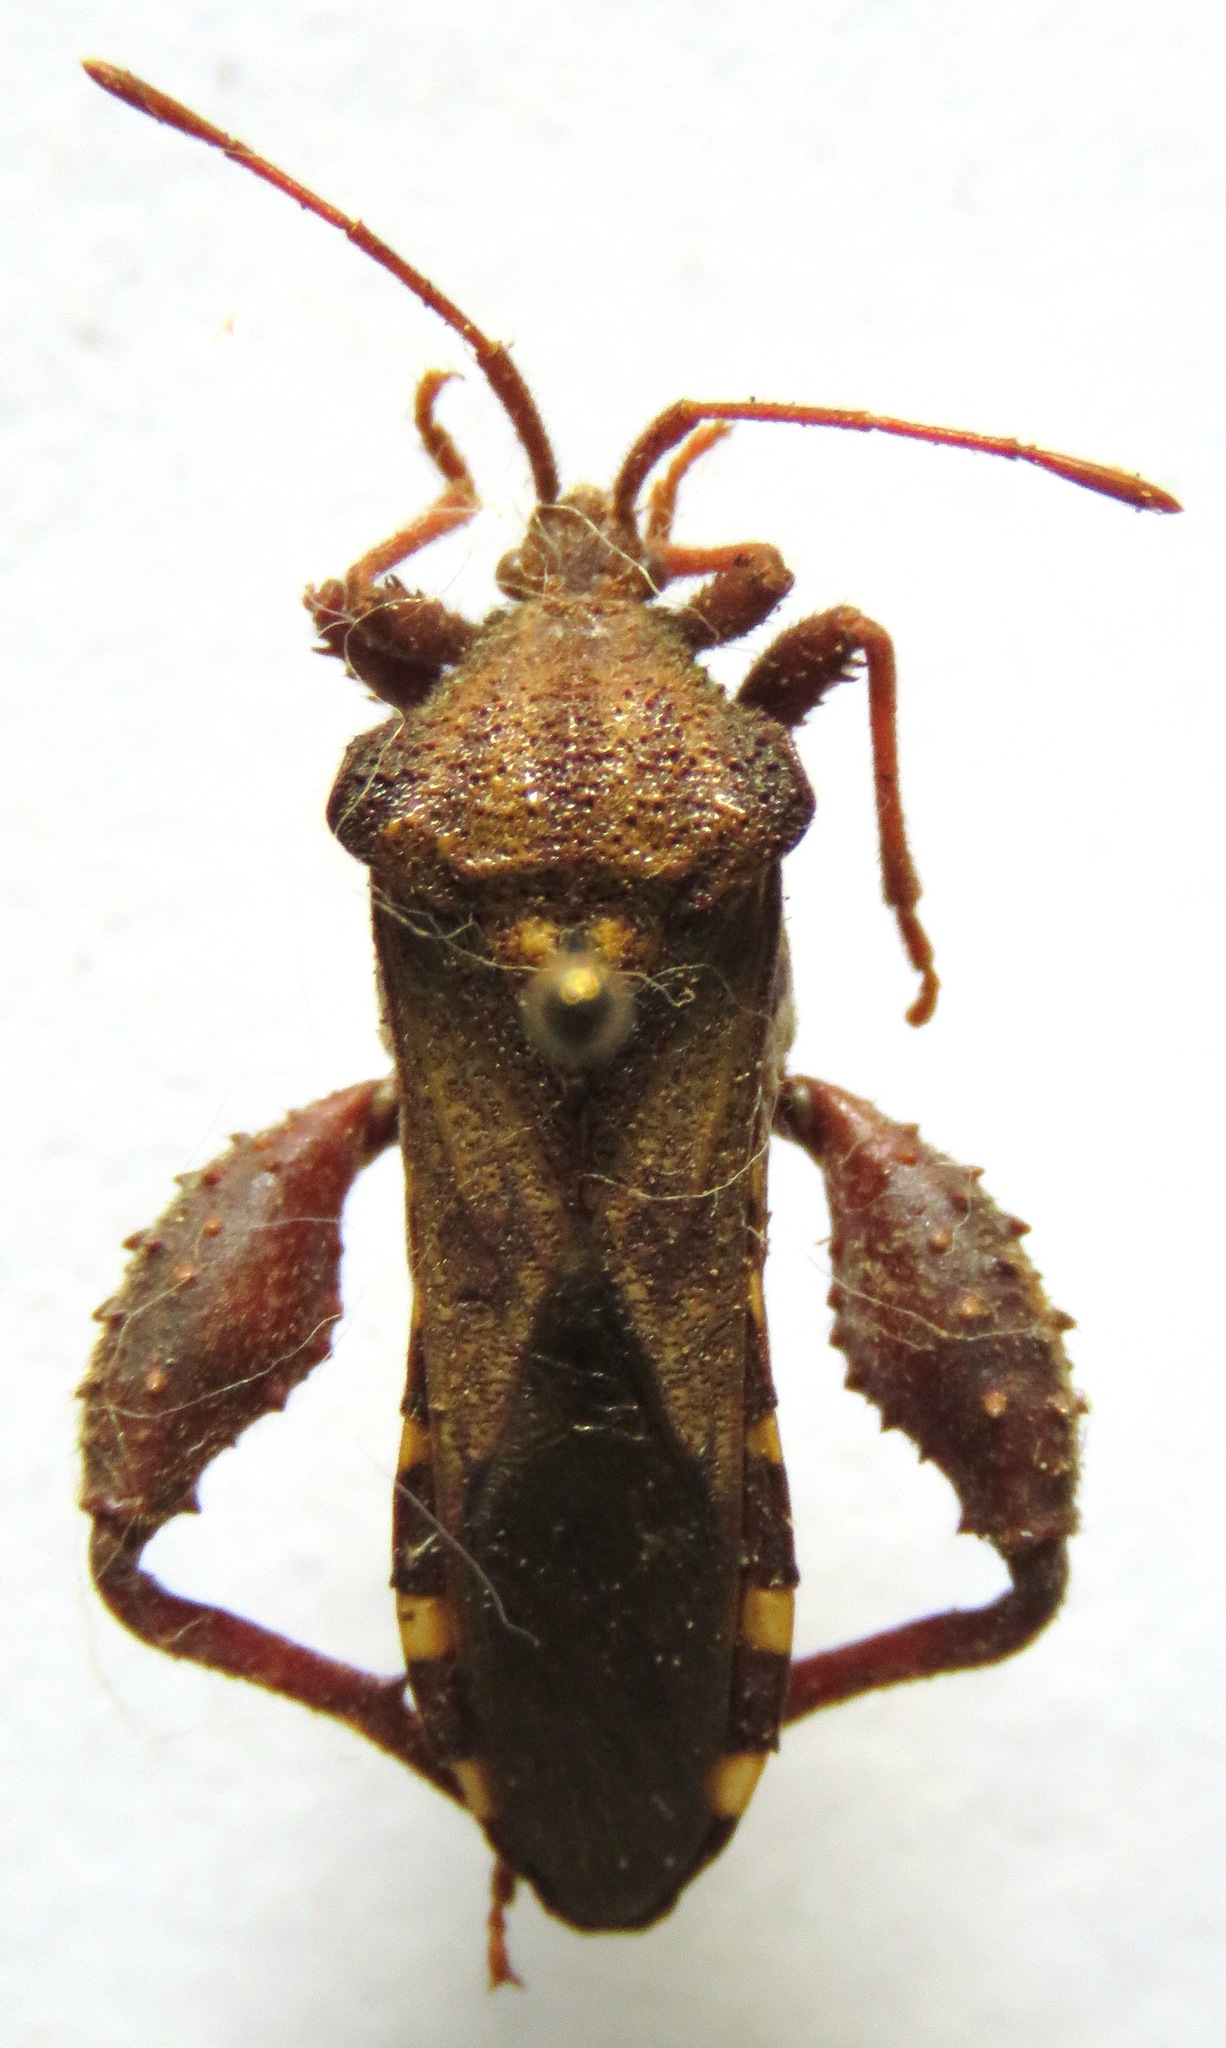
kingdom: Animalia
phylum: Arthropoda
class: Insecta
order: Hemiptera
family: Coreidae
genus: Piezogaster
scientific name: Piezogaster scutellaris
